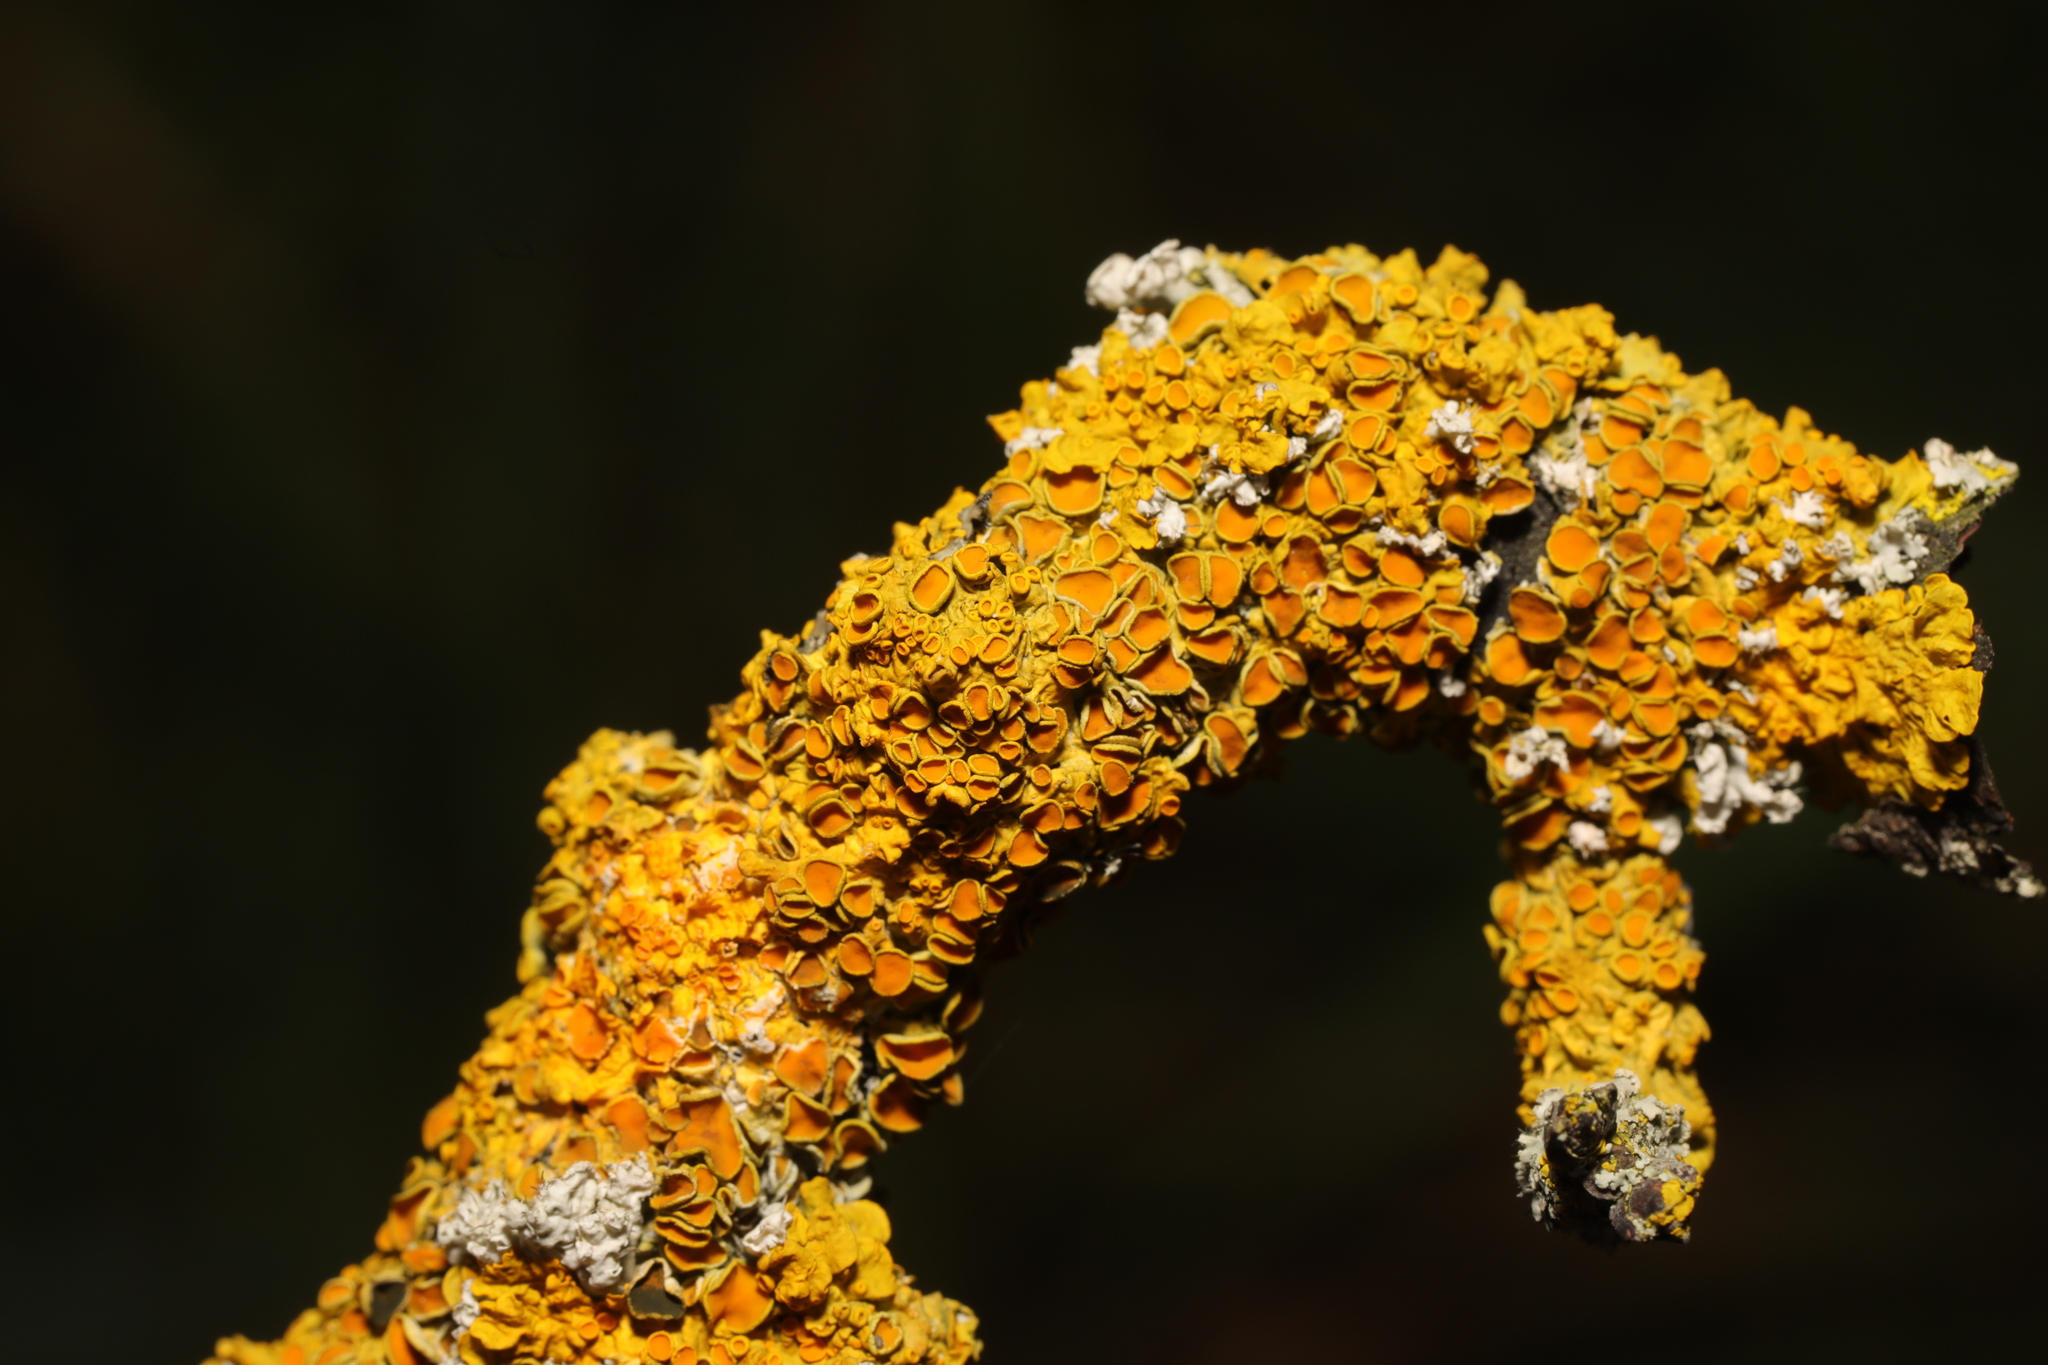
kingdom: Fungi
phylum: Ascomycota
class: Lecanoromycetes
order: Teloschistales
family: Teloschistaceae
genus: Xanthoria
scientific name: Xanthoria parietina
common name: Common orange lichen
